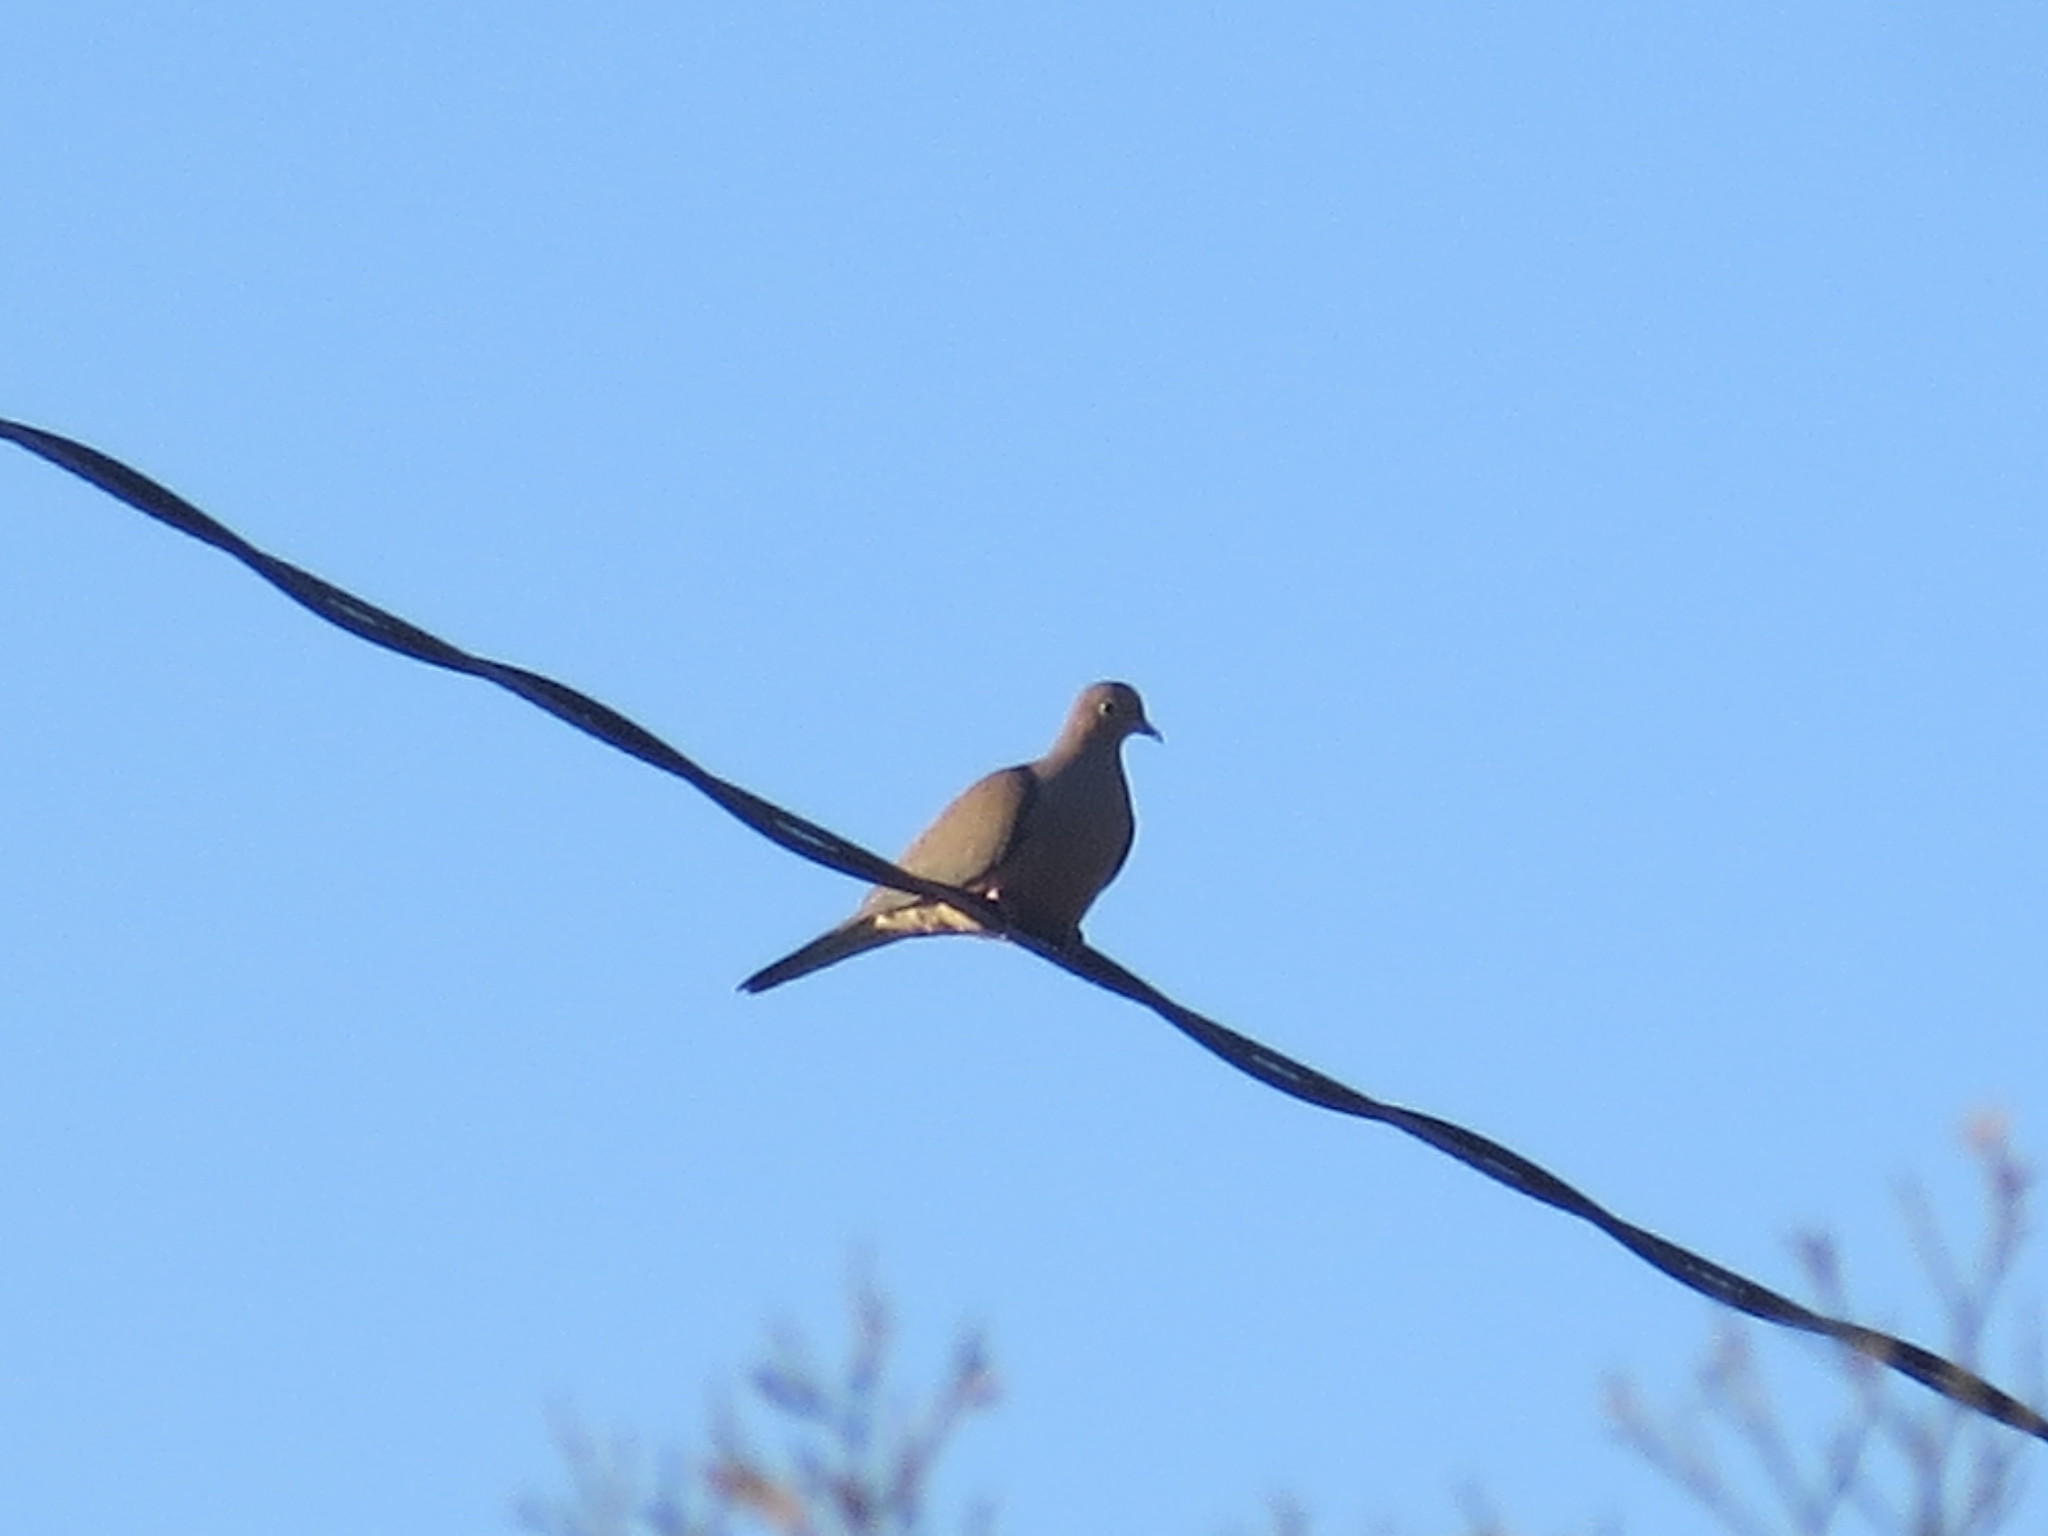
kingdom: Animalia
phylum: Chordata
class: Aves
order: Columbiformes
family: Columbidae
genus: Zenaida
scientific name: Zenaida macroura
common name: Mourning dove
